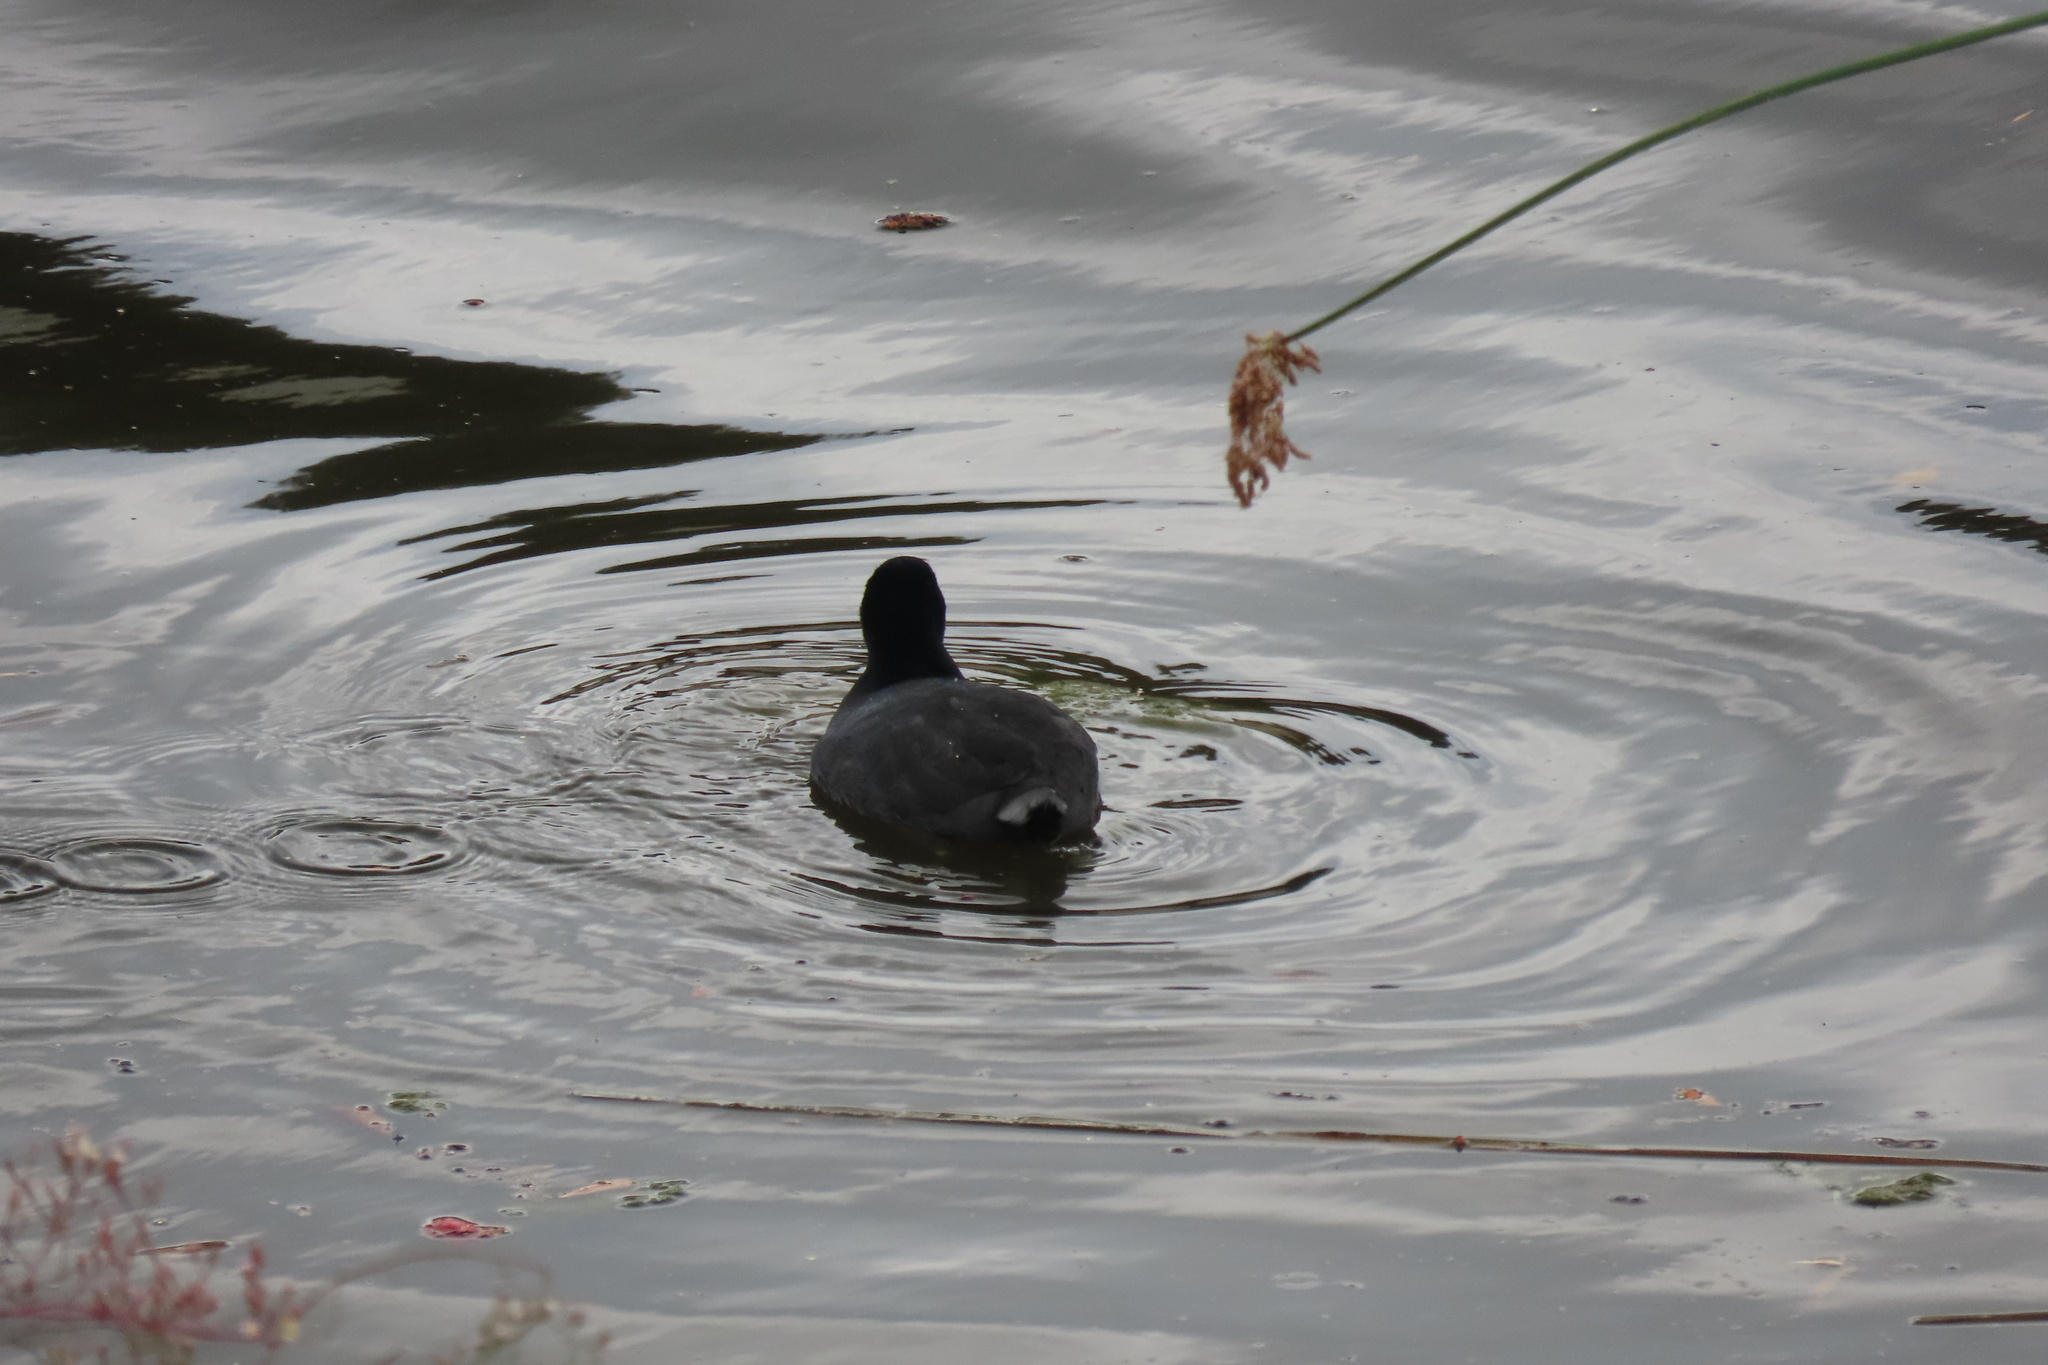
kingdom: Animalia
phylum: Chordata
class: Aves
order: Gruiformes
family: Rallidae
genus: Fulica
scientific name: Fulica americana
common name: American coot
